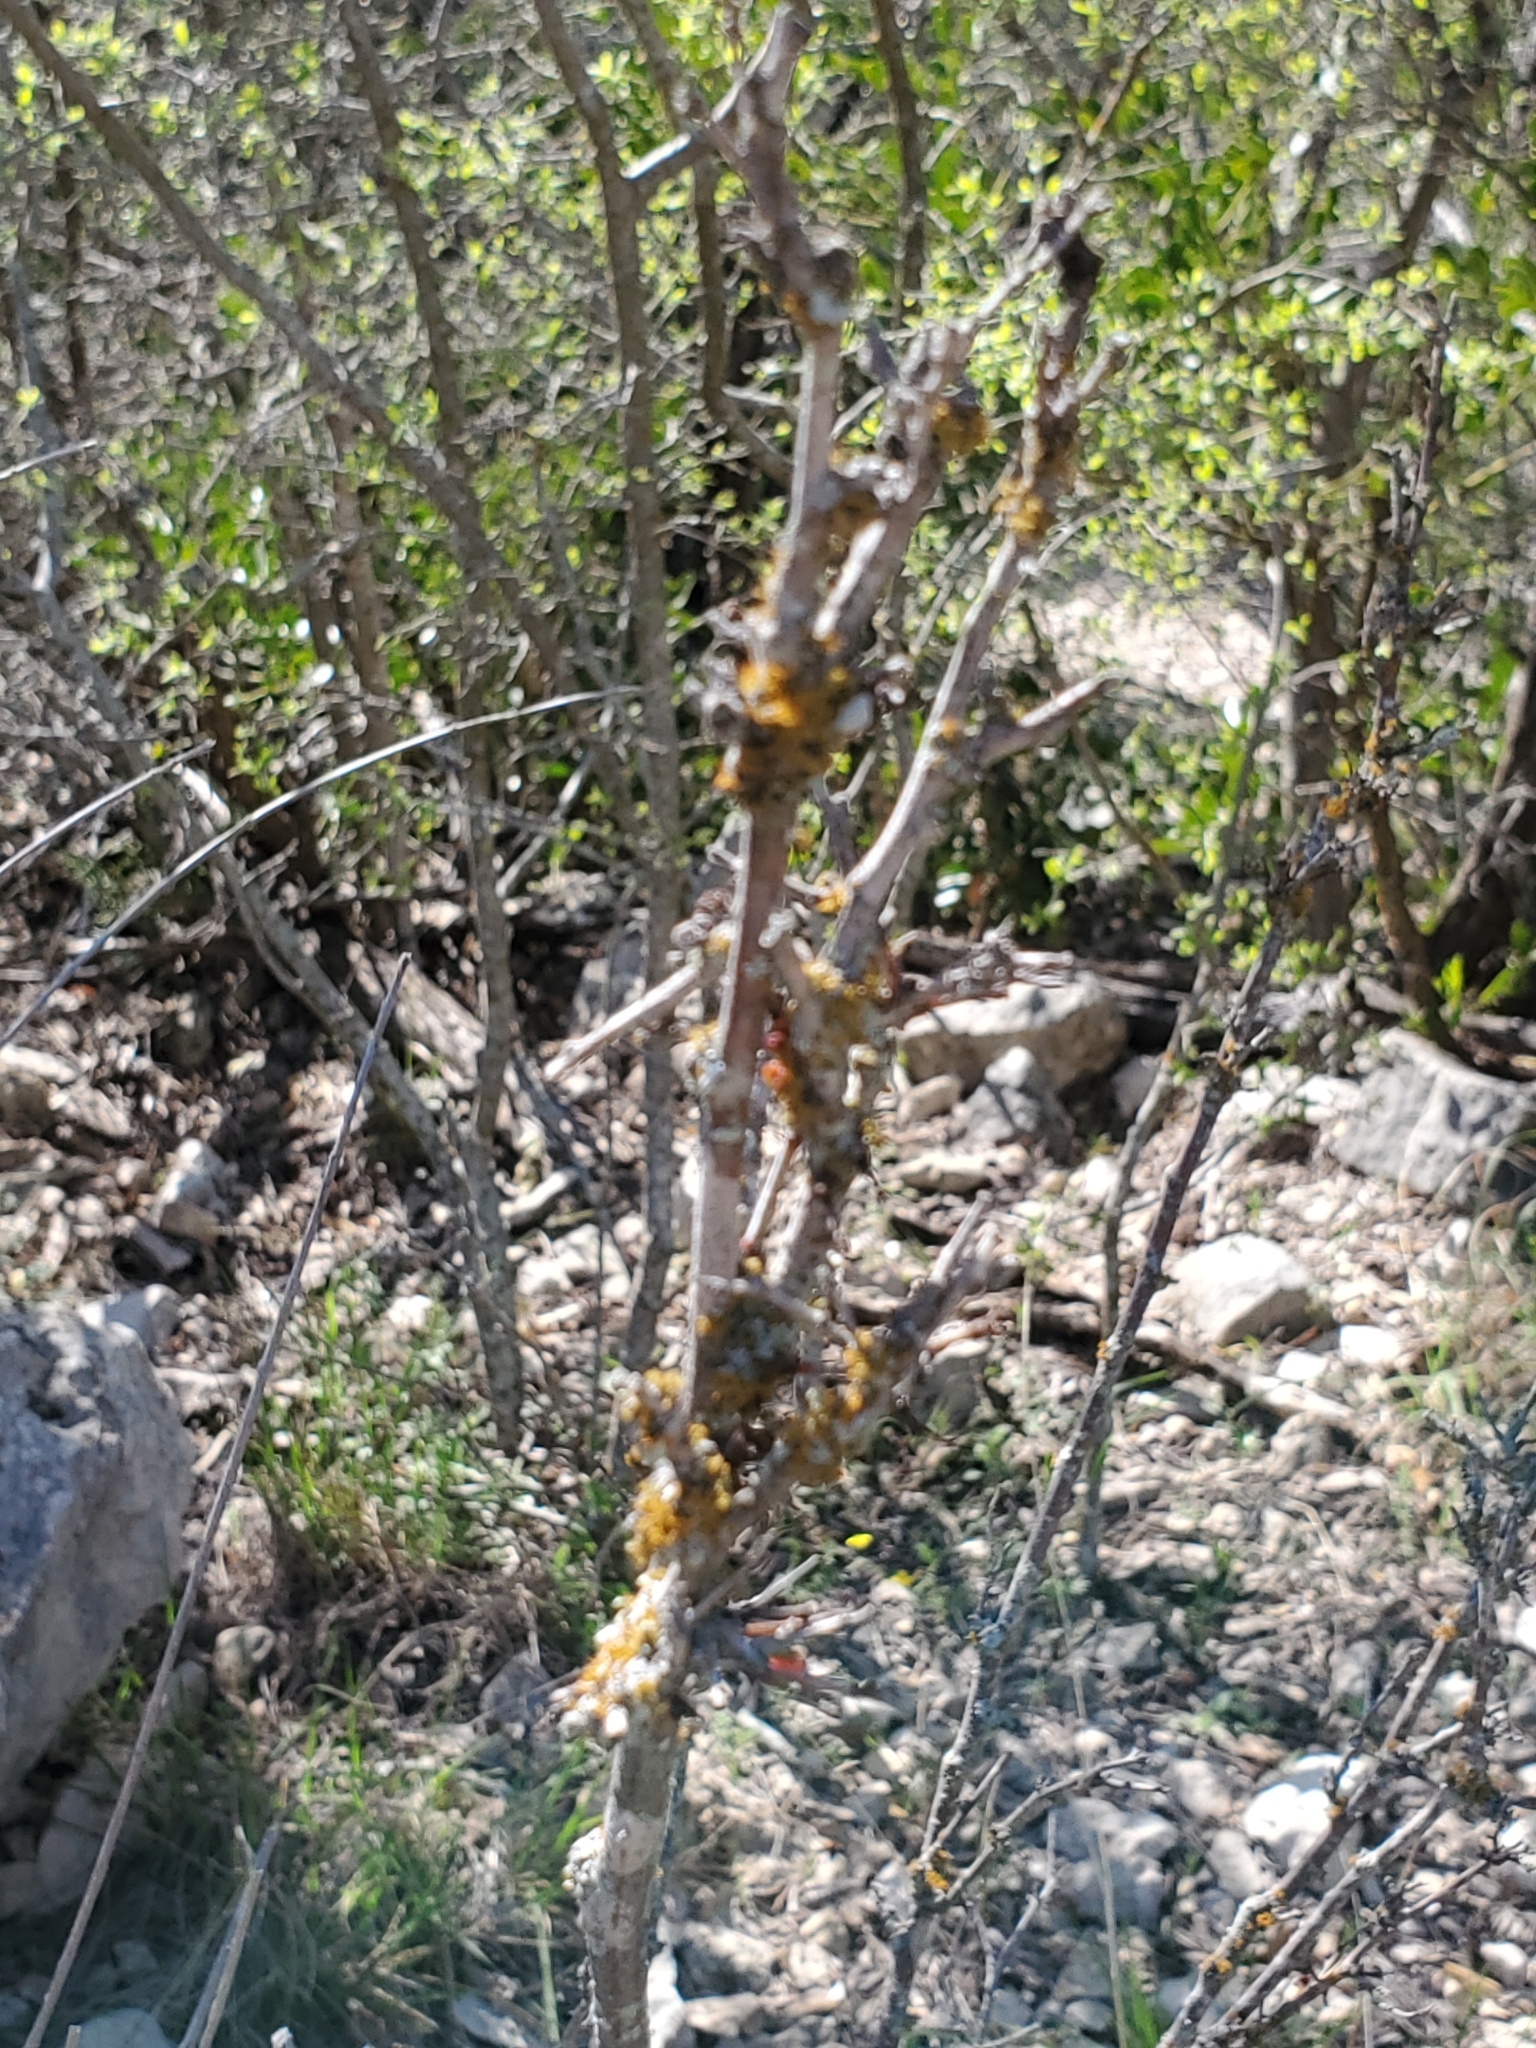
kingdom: Plantae
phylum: Tracheophyta
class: Magnoliopsida
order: Fabales
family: Fabaceae
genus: Senegalia
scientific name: Senegalia roemeriana
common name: Roemer's acacia
